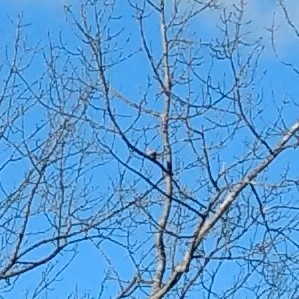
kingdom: Animalia
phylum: Chordata
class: Aves
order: Columbiformes
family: Columbidae
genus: Zenaida
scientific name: Zenaida macroura
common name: Mourning dove
